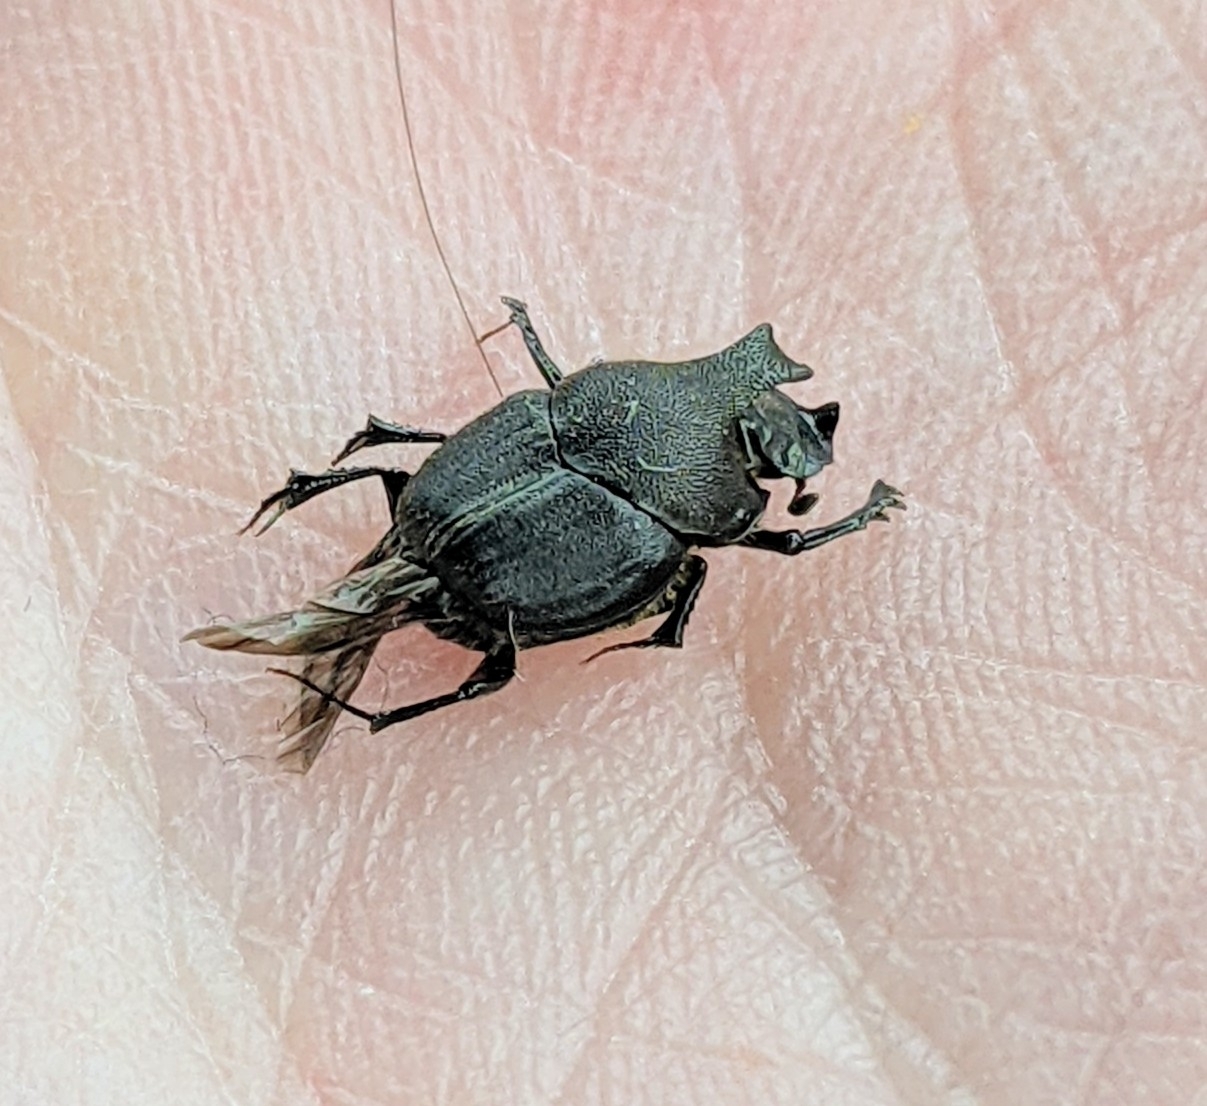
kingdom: Animalia
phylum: Arthropoda
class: Insecta
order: Coleoptera
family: Scarabaeidae
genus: Onthophagus
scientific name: Onthophagus hecate
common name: Scooped scarab
